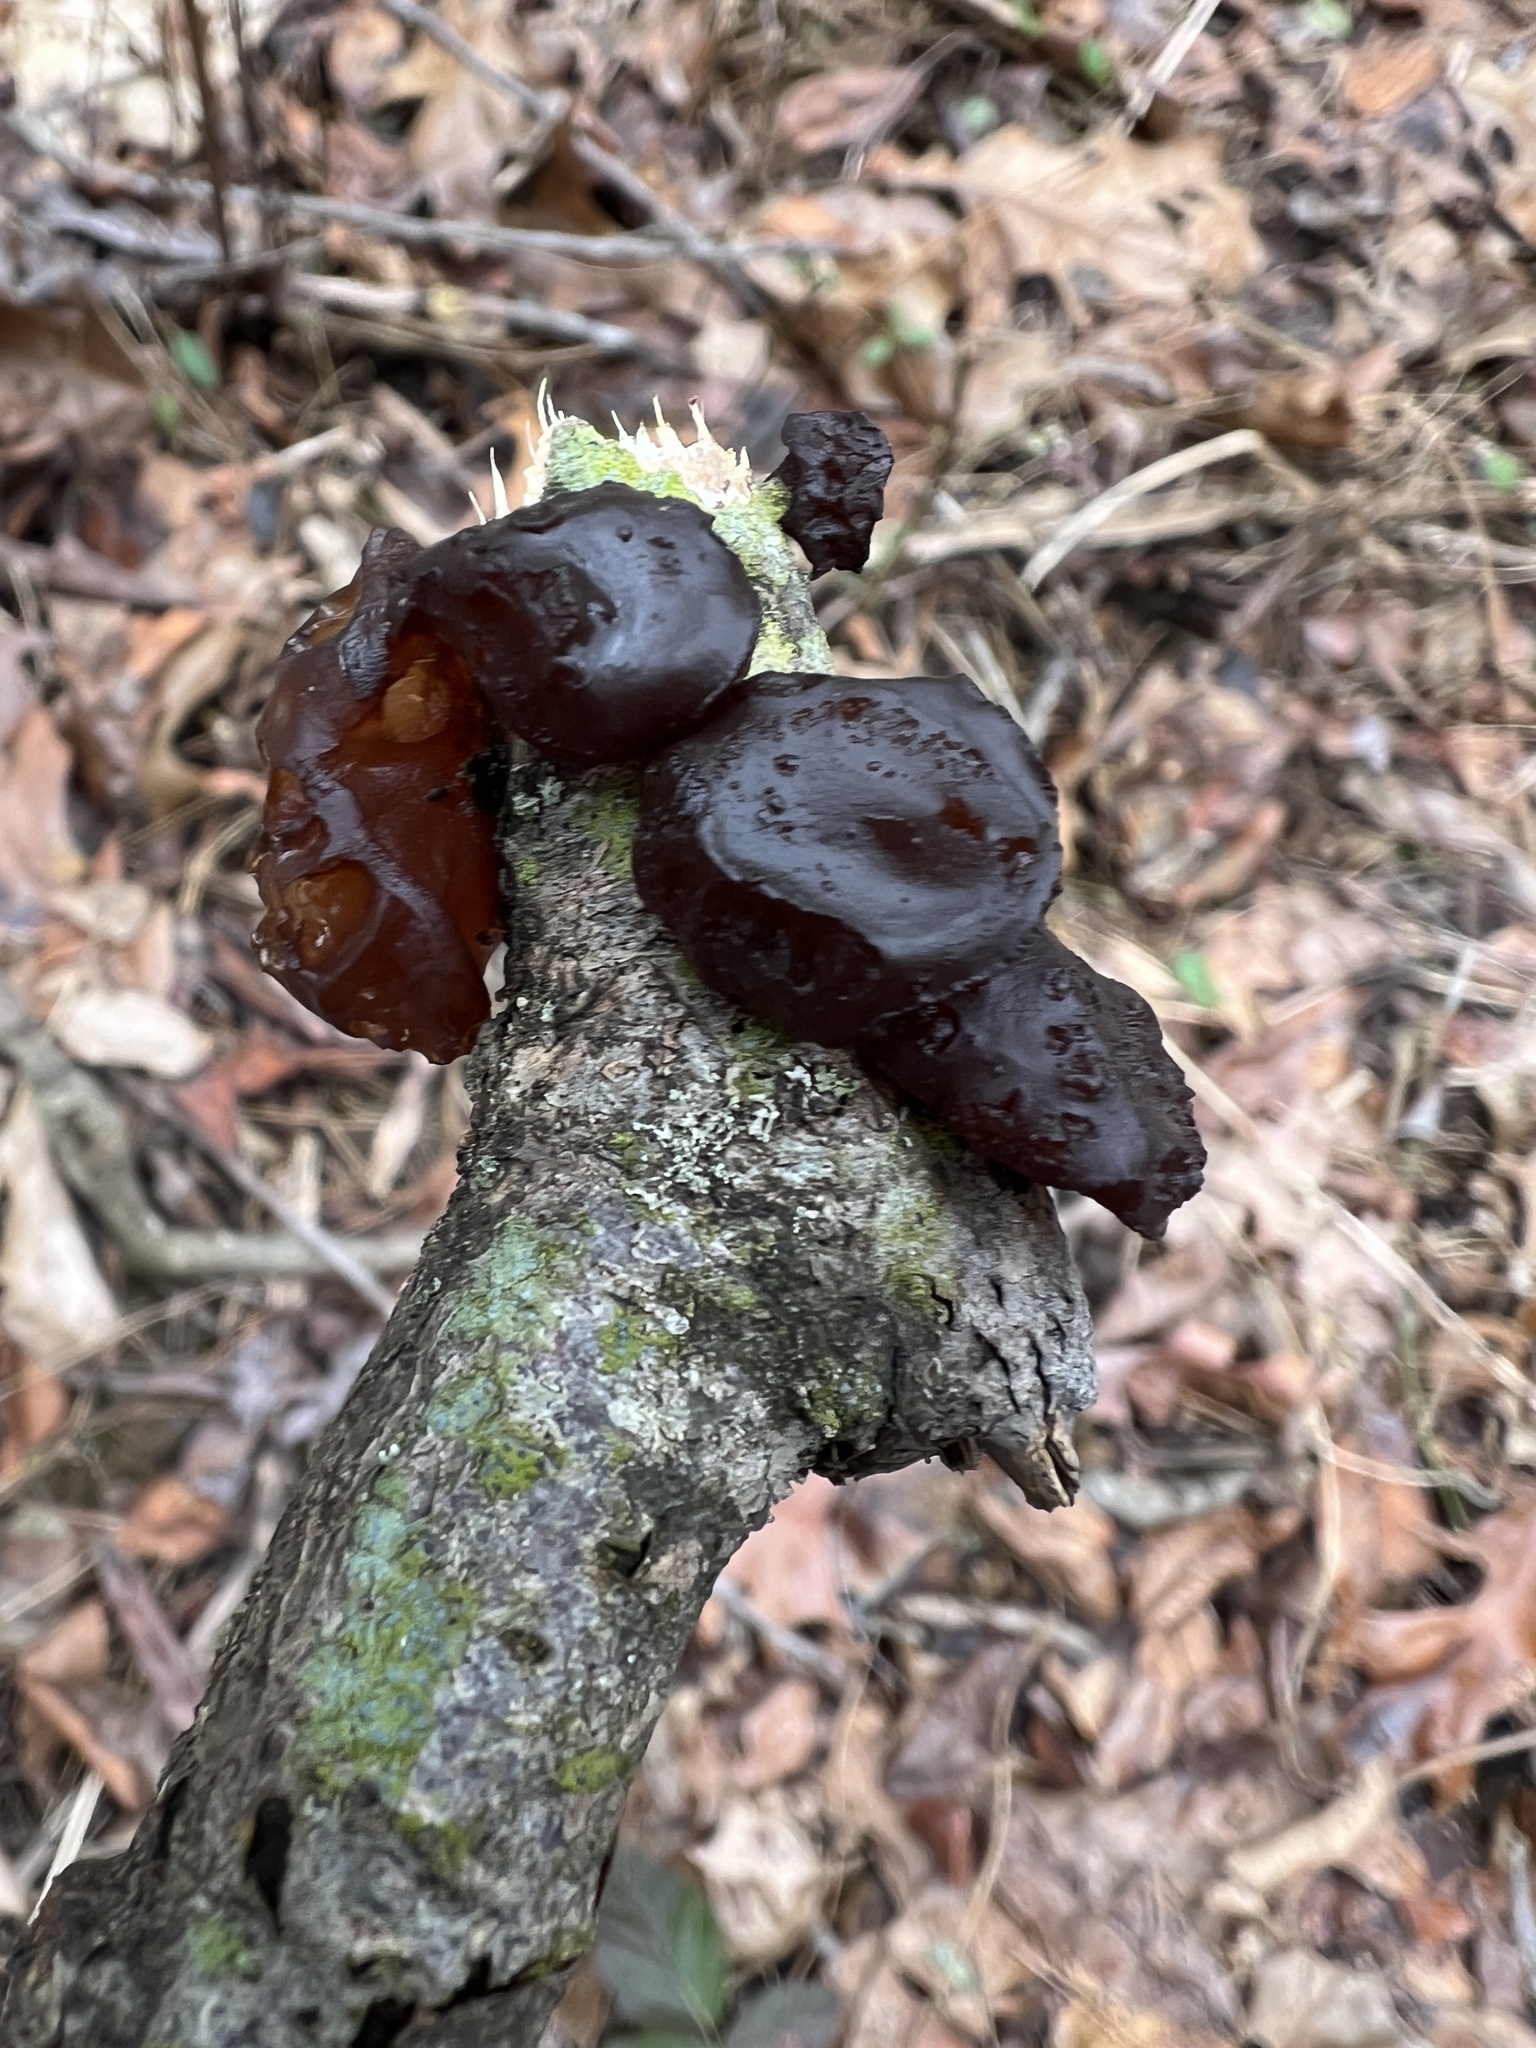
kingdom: Fungi
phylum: Basidiomycota
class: Agaricomycetes
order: Auriculariales
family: Auriculariaceae
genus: Exidia
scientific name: Exidia
